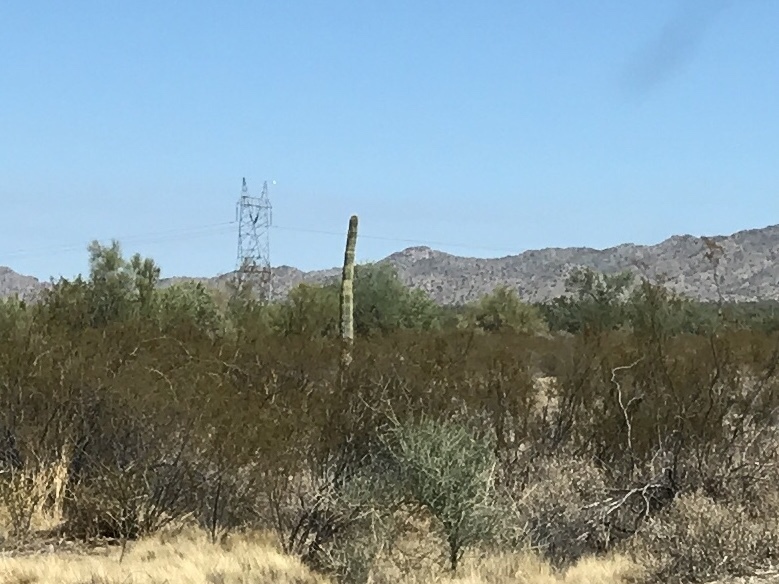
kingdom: Plantae
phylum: Tracheophyta
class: Magnoliopsida
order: Caryophyllales
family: Cactaceae
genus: Carnegiea
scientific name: Carnegiea gigantea
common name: Saguaro
